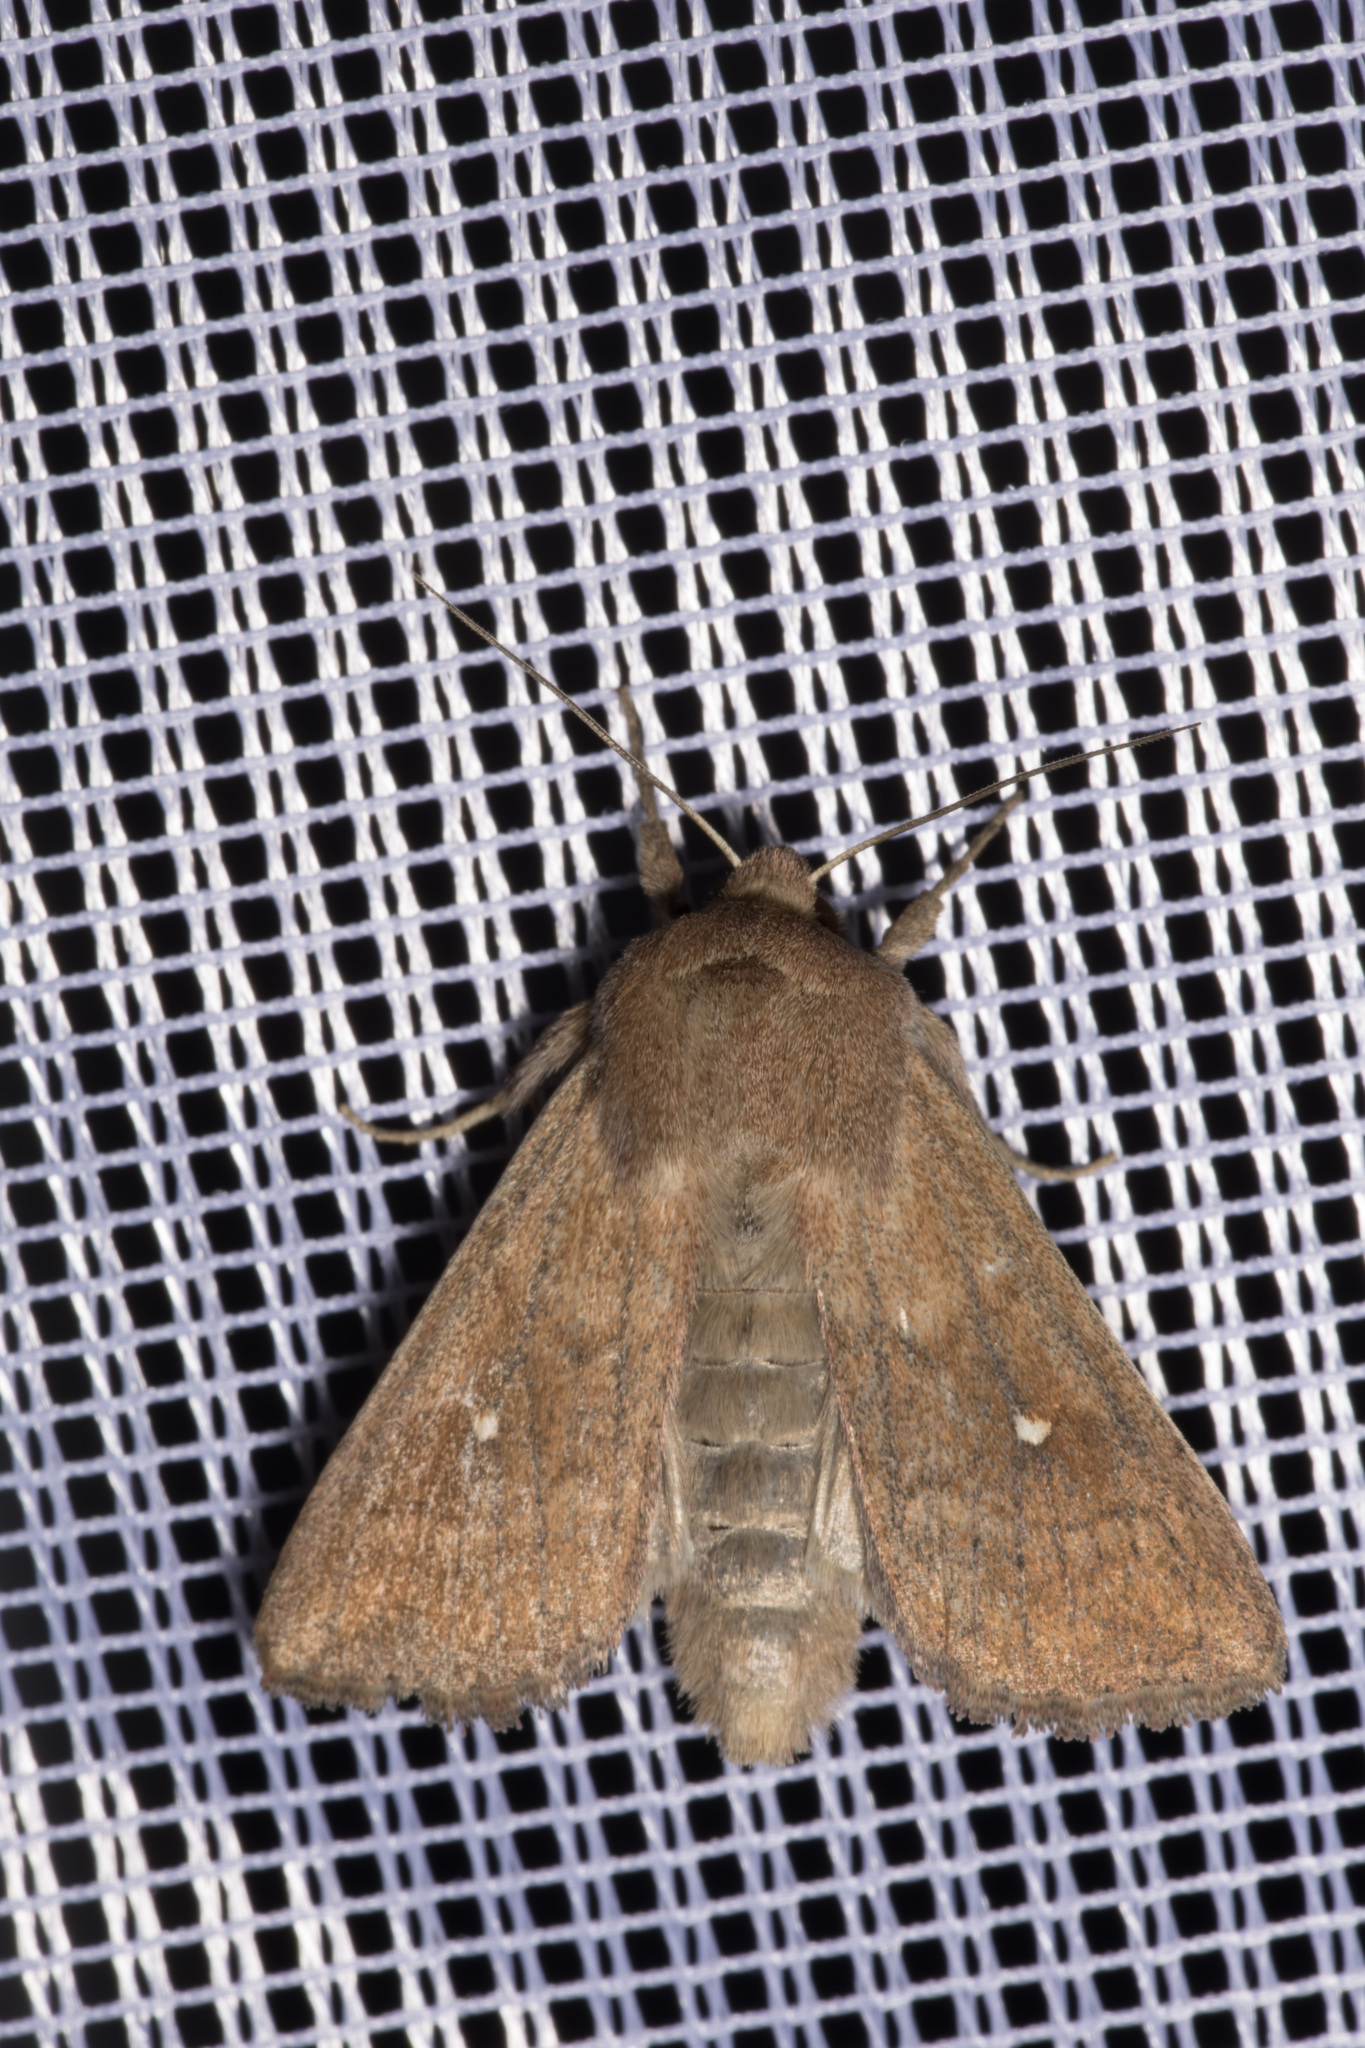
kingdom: Animalia
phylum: Arthropoda
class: Insecta
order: Lepidoptera
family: Noctuidae
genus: Mythimna
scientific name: Mythimna albipuncta
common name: White-point
